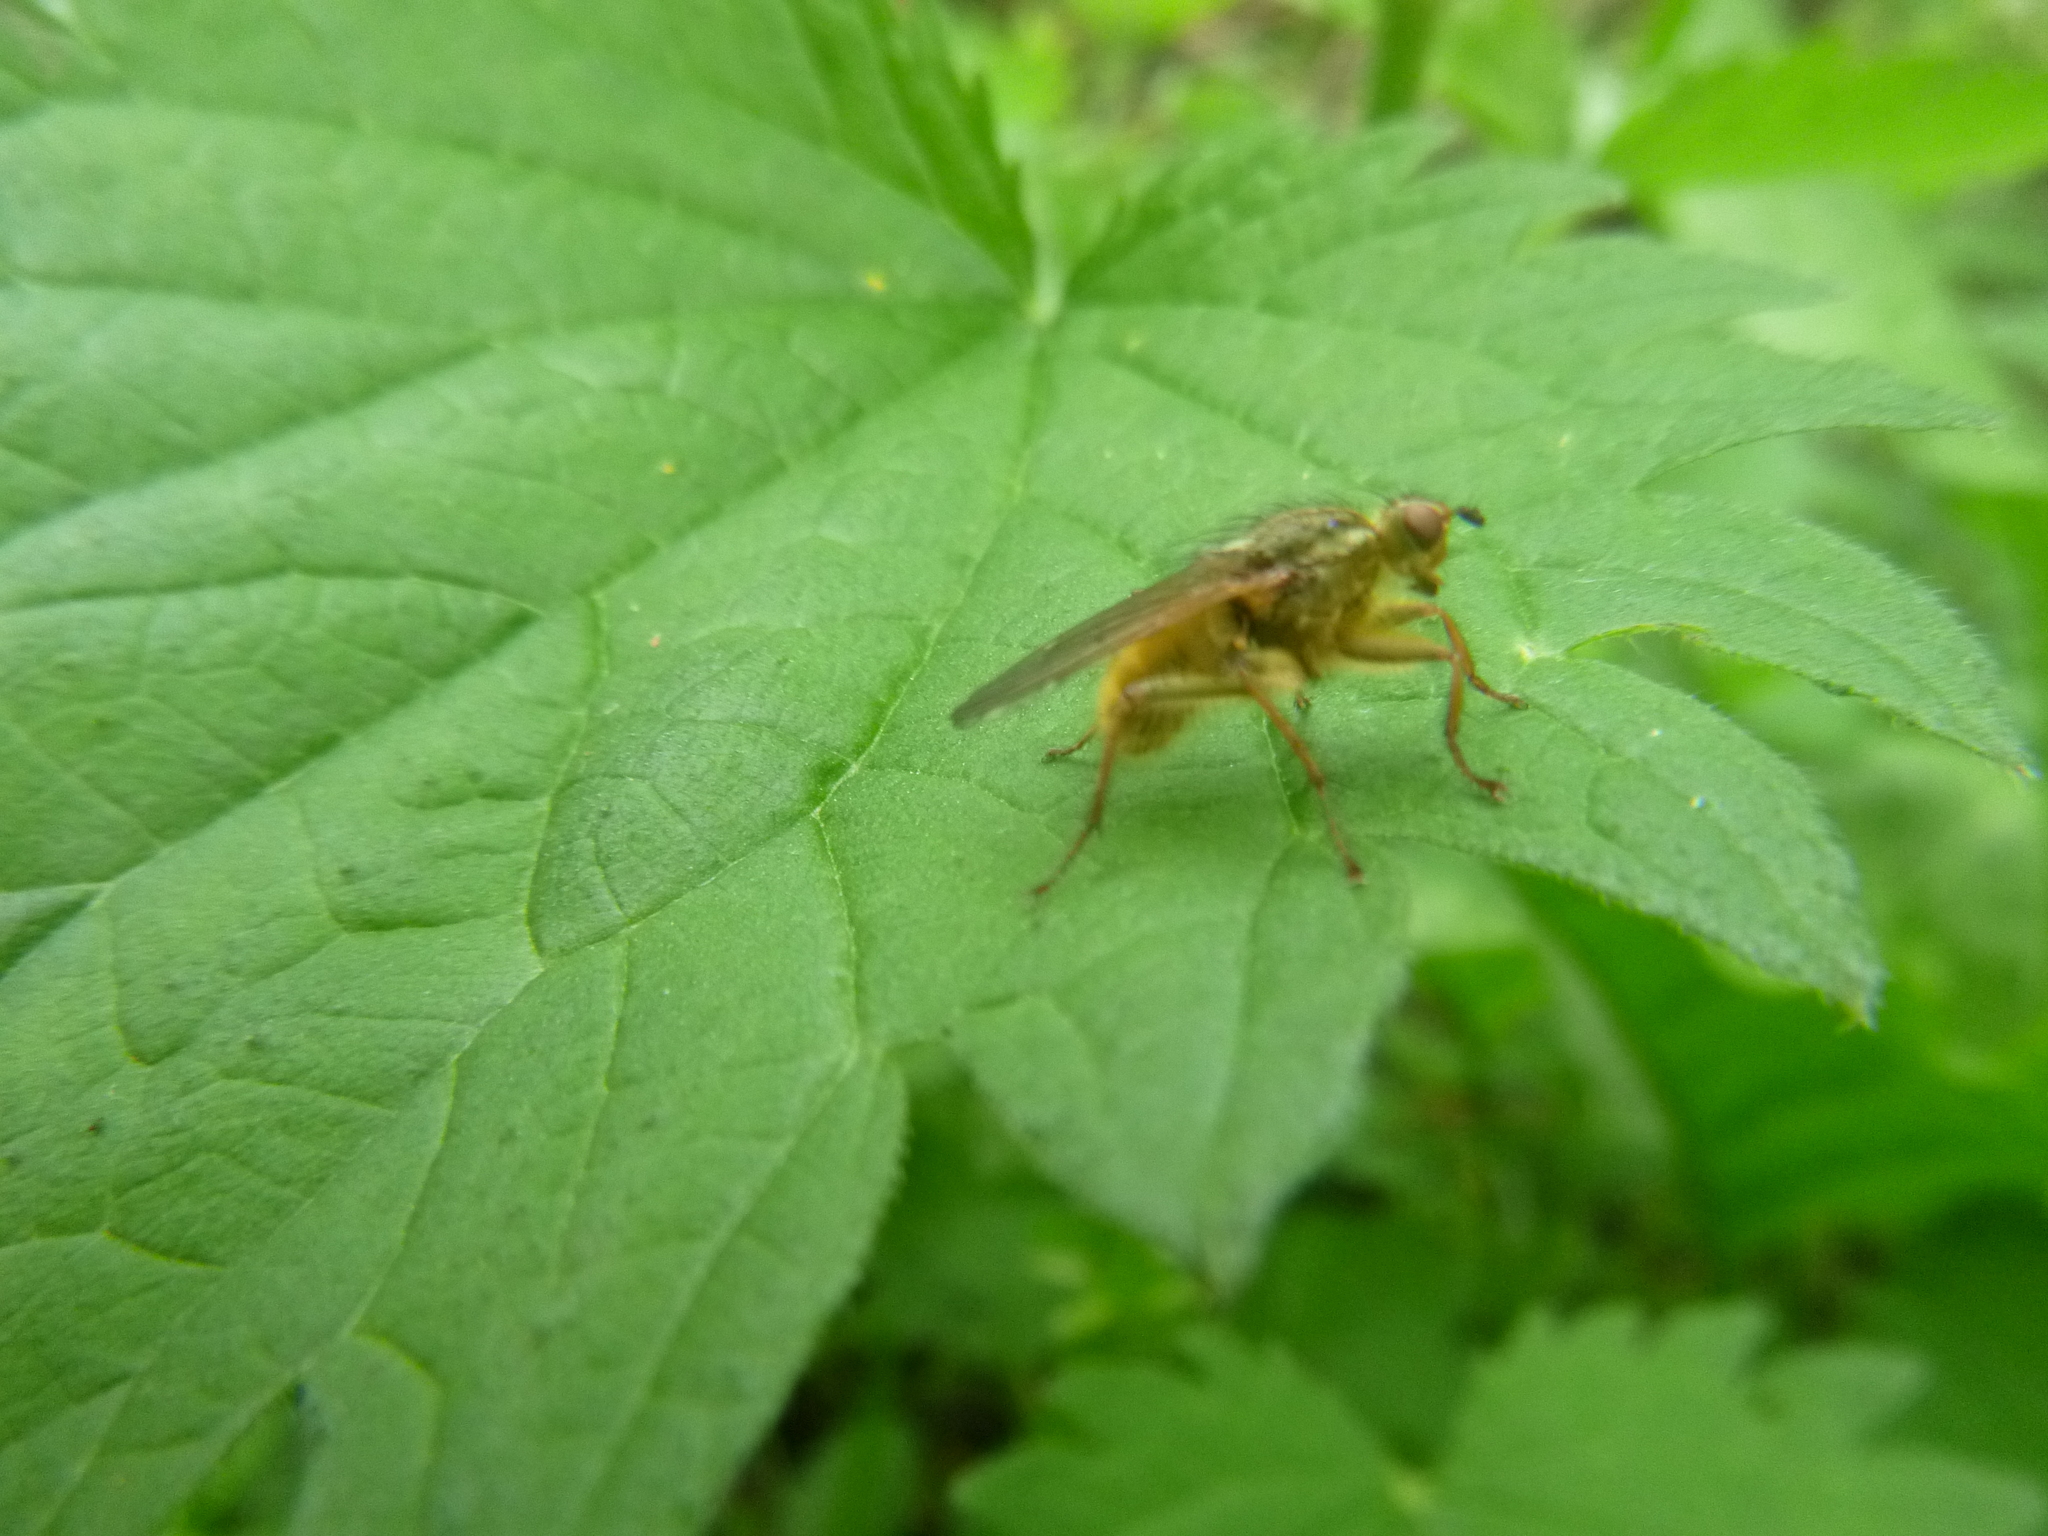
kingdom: Animalia
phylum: Arthropoda
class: Insecta
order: Diptera
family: Scathophagidae
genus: Scathophaga
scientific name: Scathophaga stercoraria
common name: Yellow dung fly
